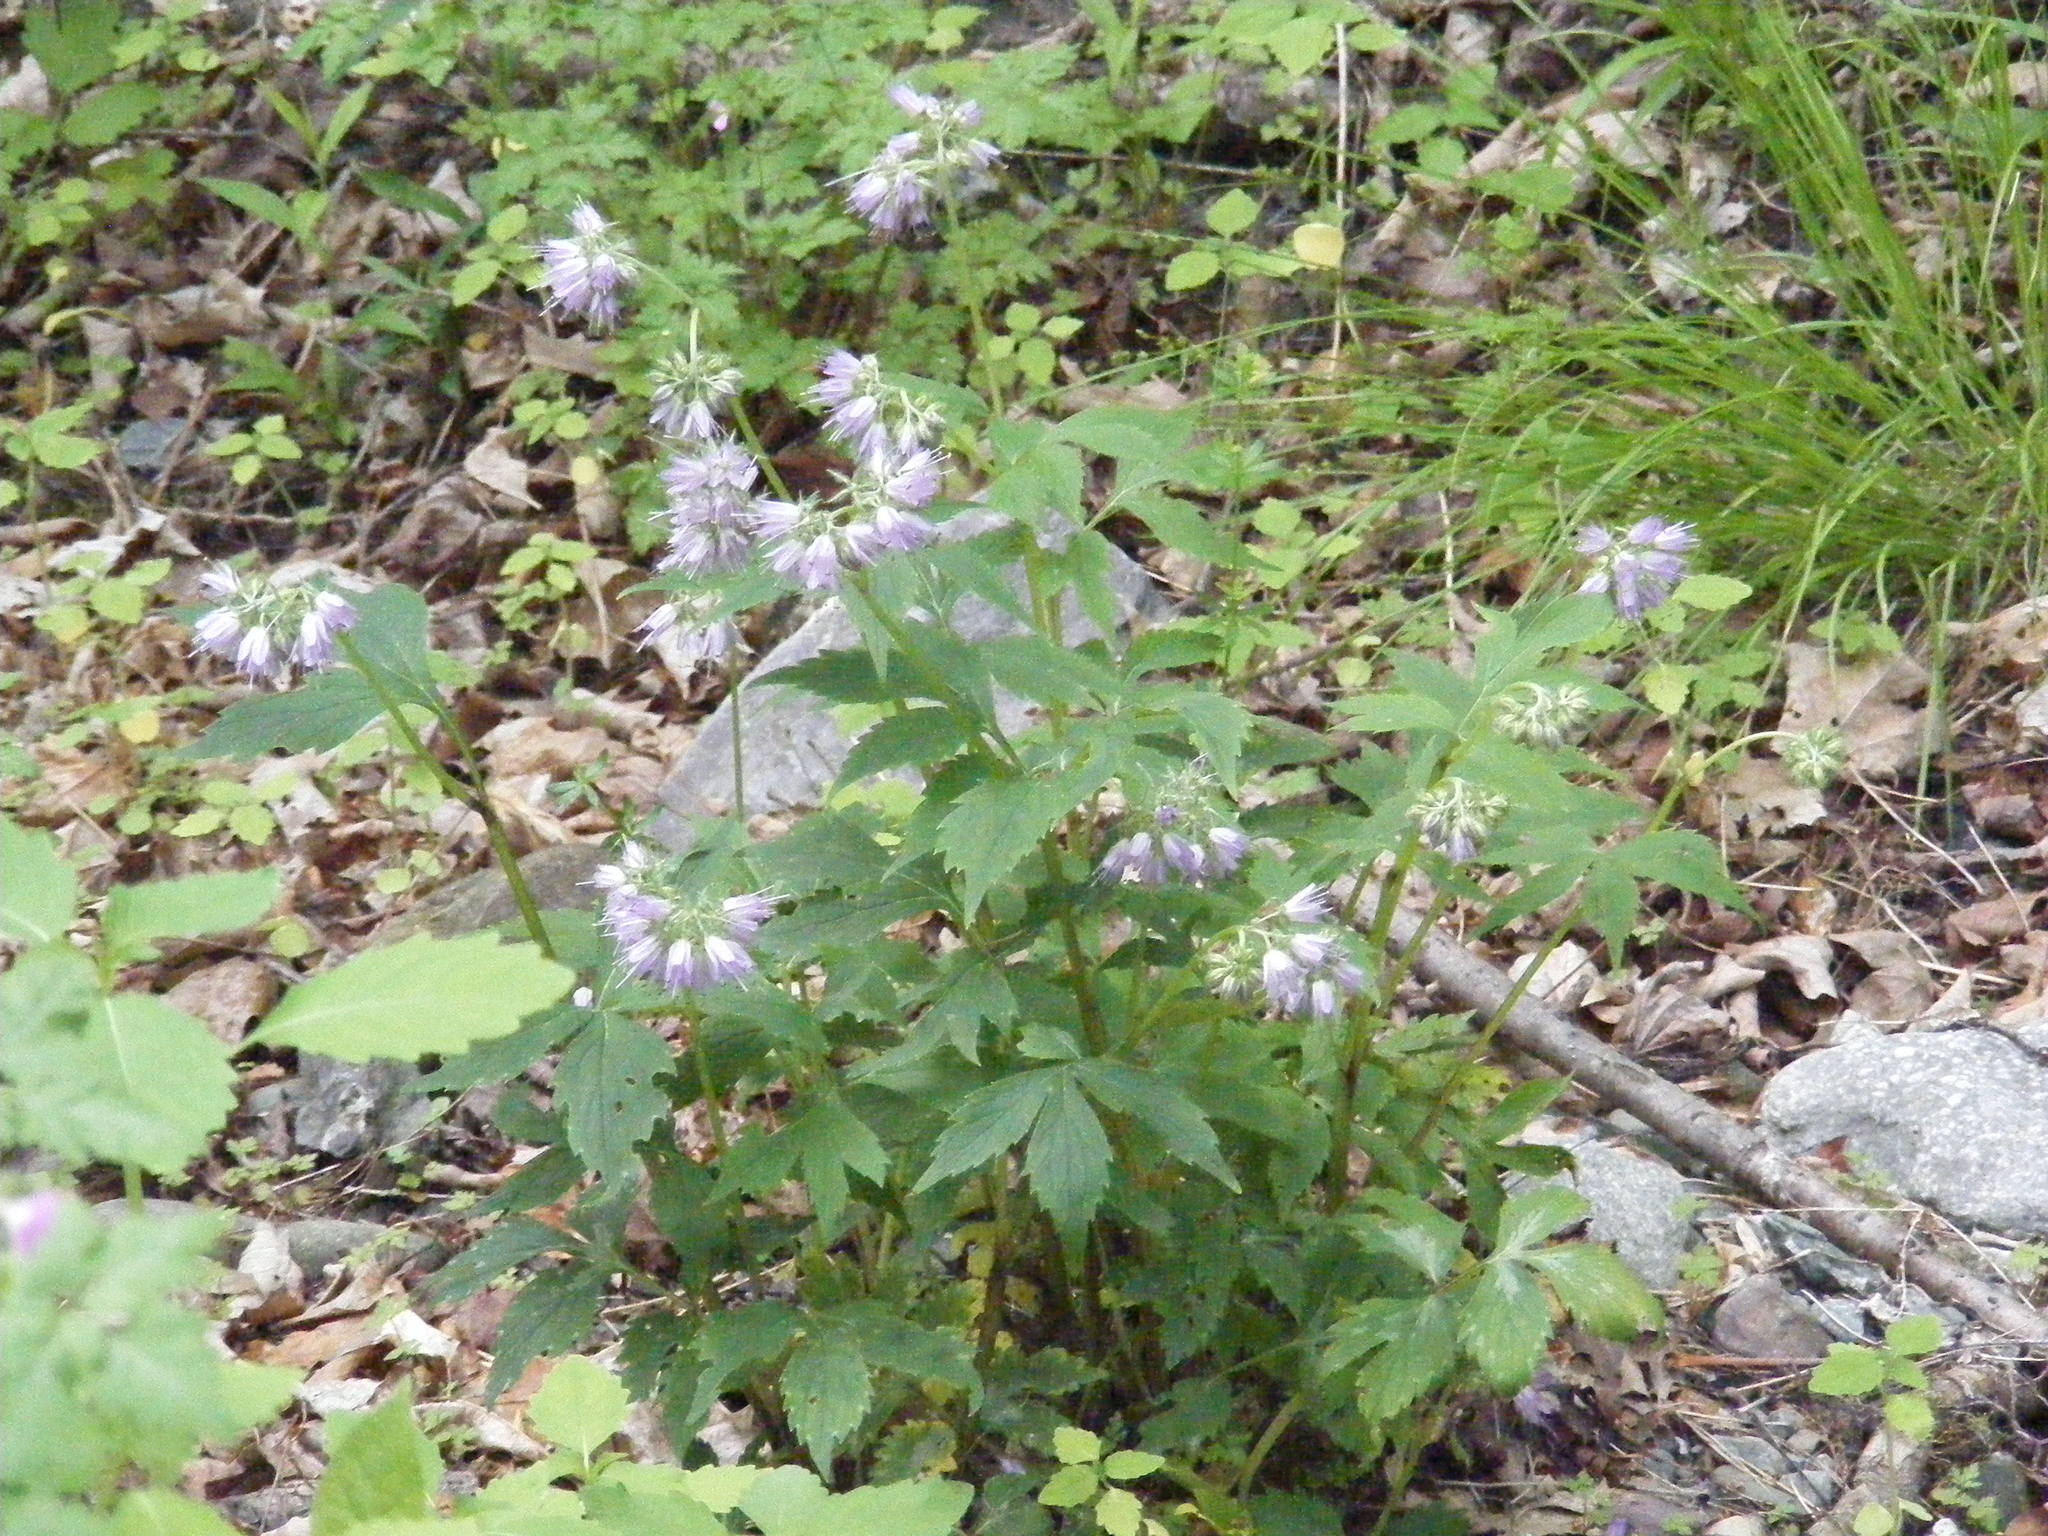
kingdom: Plantae
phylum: Tracheophyta
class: Magnoliopsida
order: Boraginales
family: Hydrophyllaceae
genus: Hydrophyllum
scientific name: Hydrophyllum virginianum
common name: Virginia waterleaf
